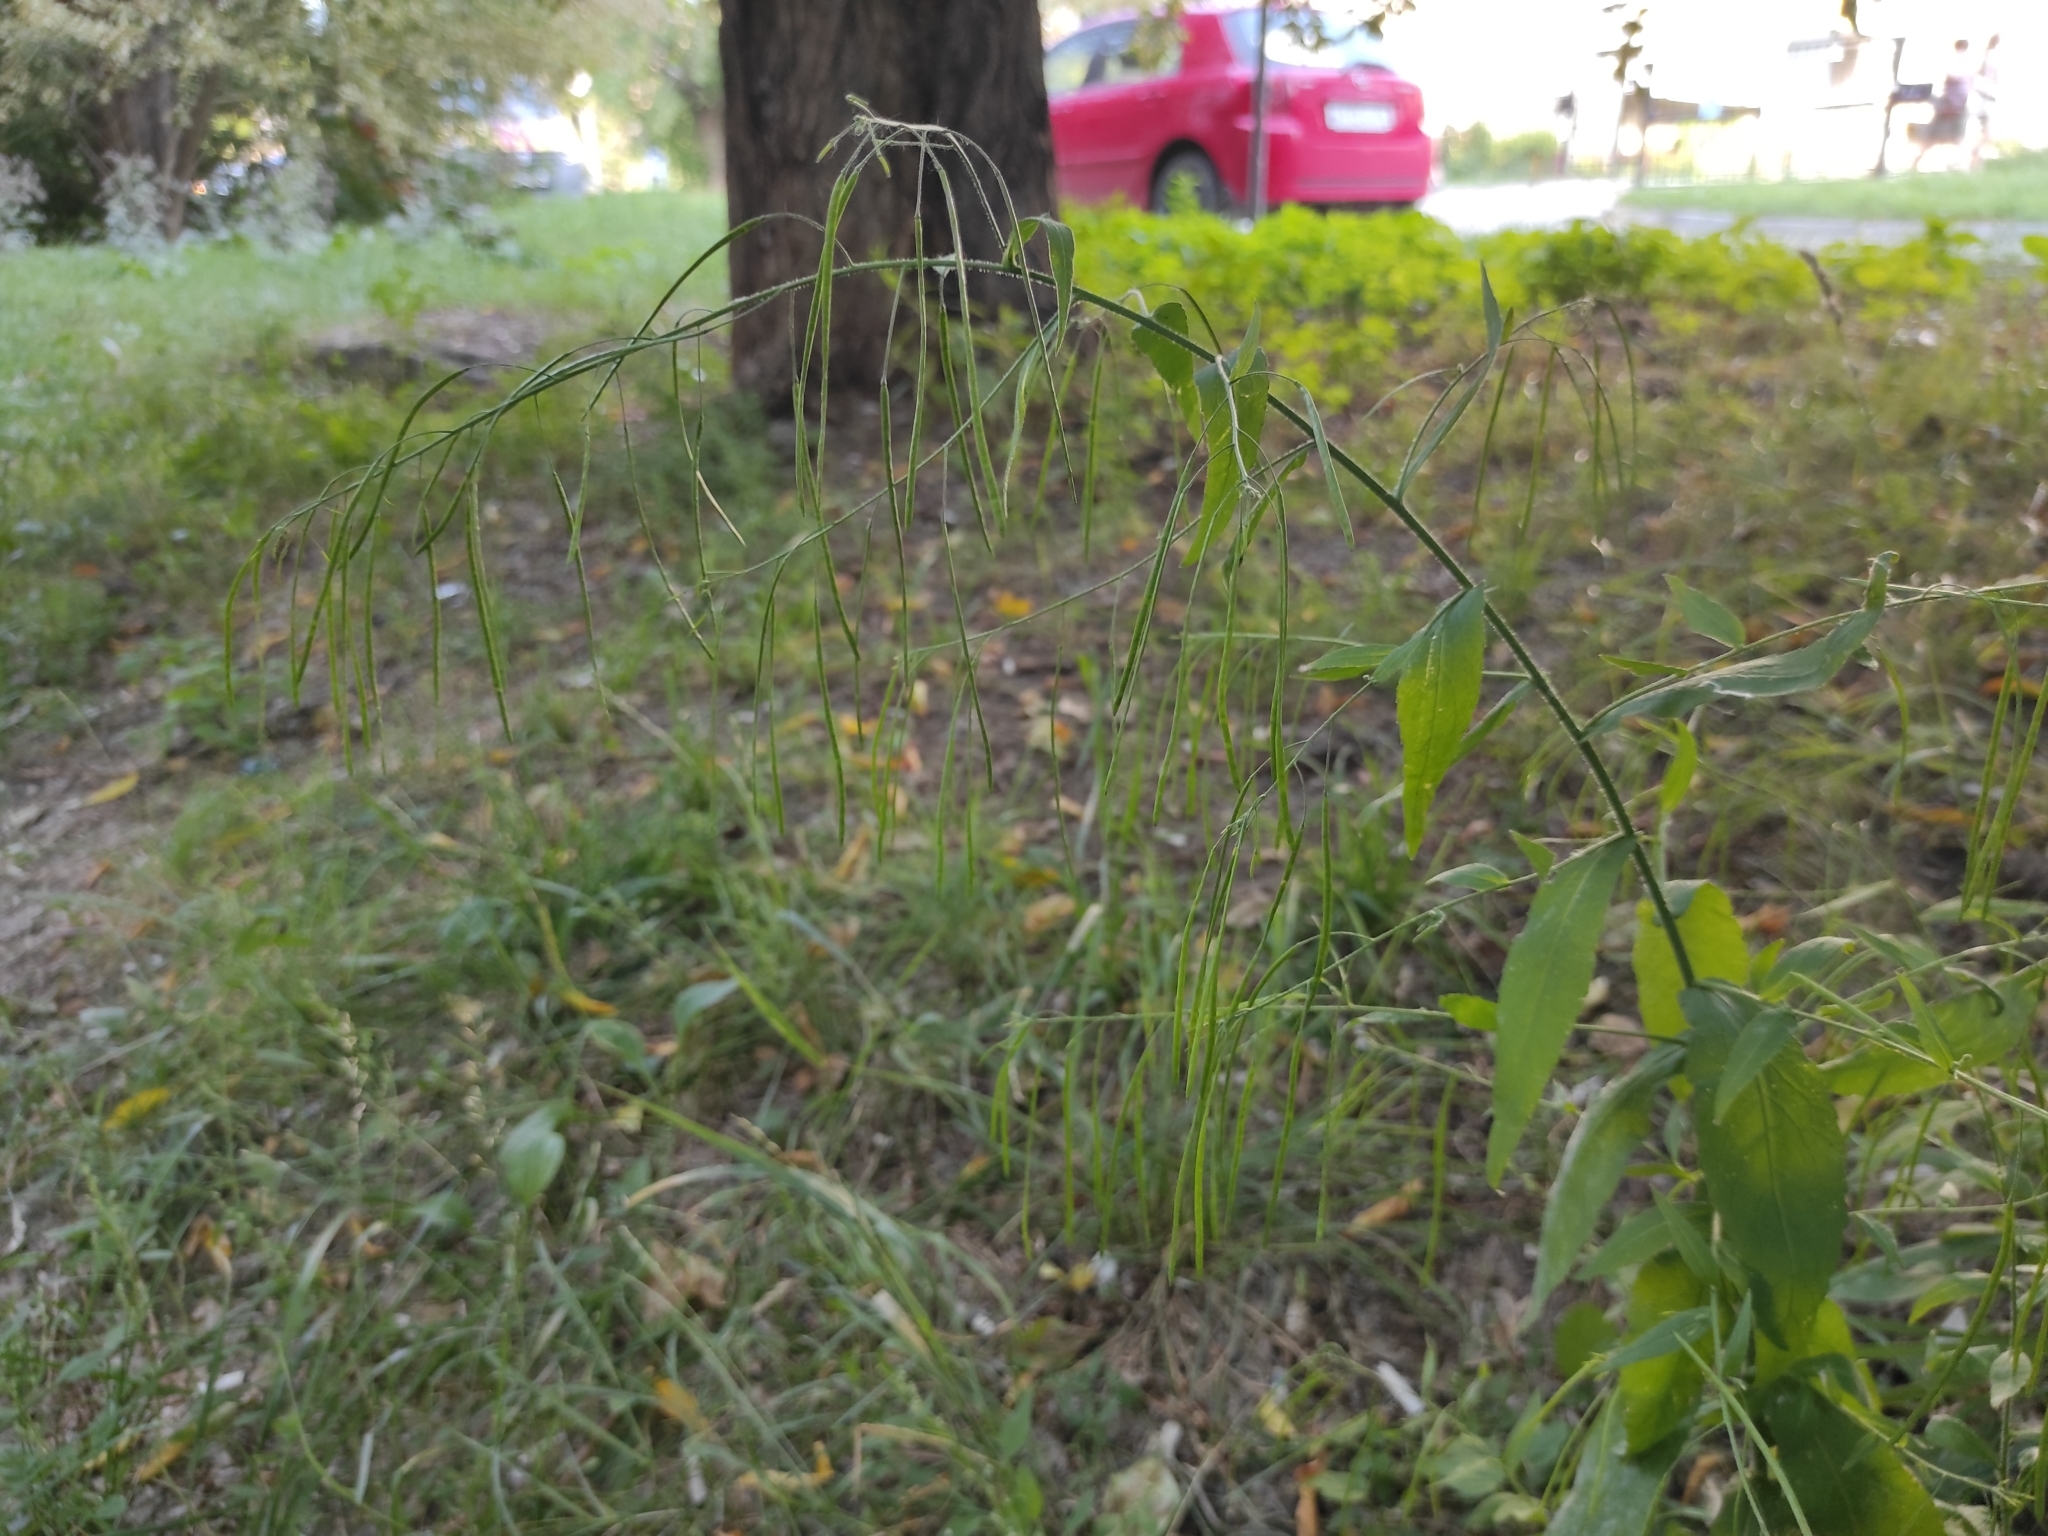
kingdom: Plantae
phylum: Tracheophyta
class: Magnoliopsida
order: Brassicales
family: Brassicaceae
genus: Catolobus
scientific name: Catolobus pendulus
